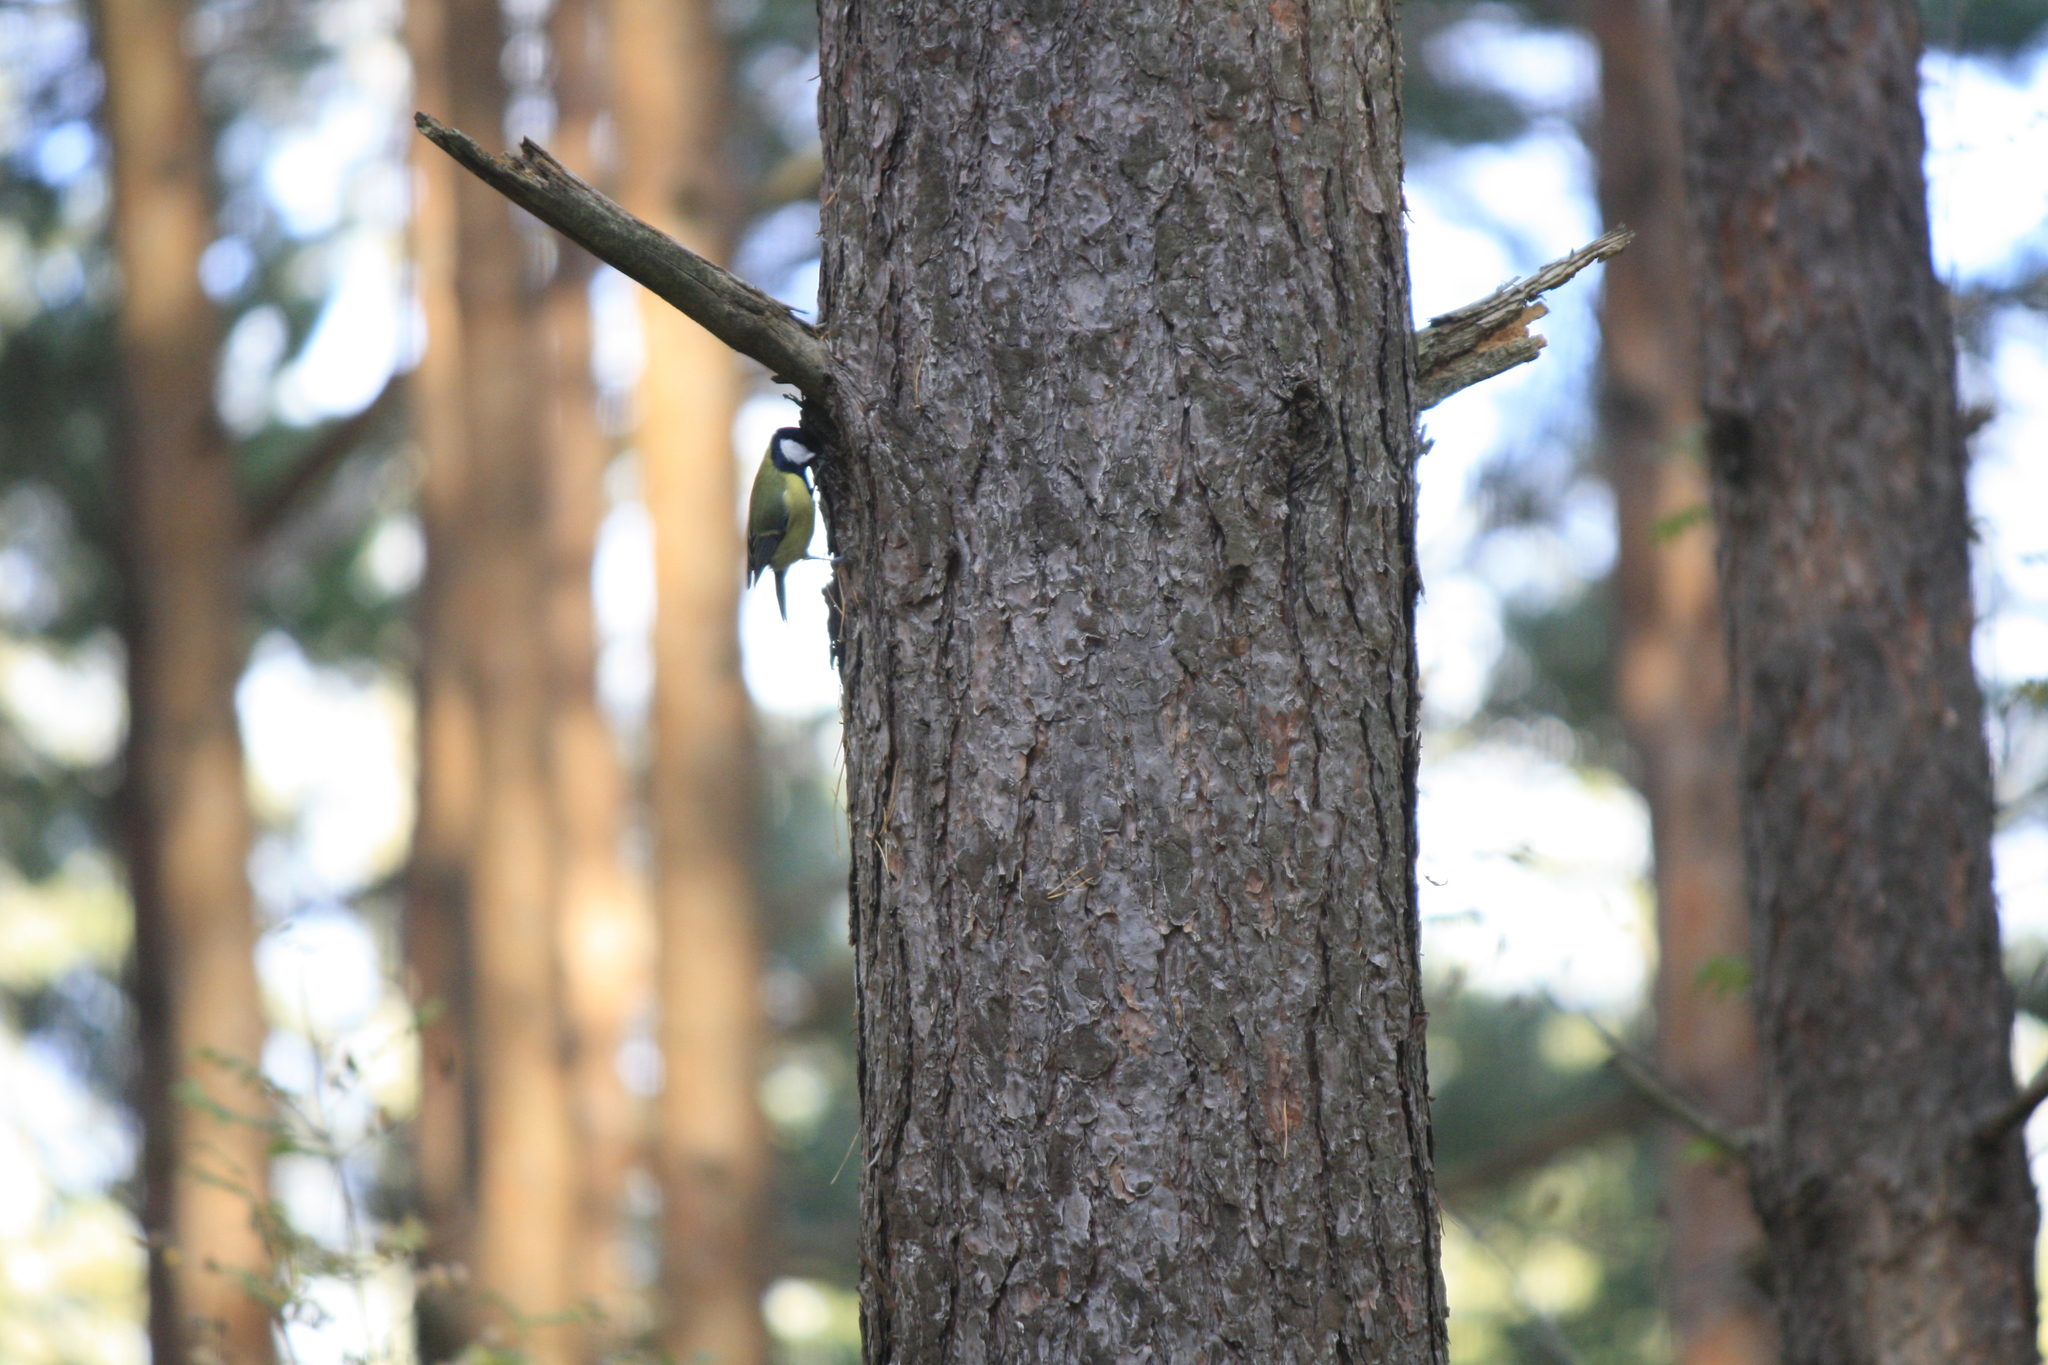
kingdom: Animalia
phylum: Chordata
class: Aves
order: Passeriformes
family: Paridae
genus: Parus
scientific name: Parus major
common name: Great tit
